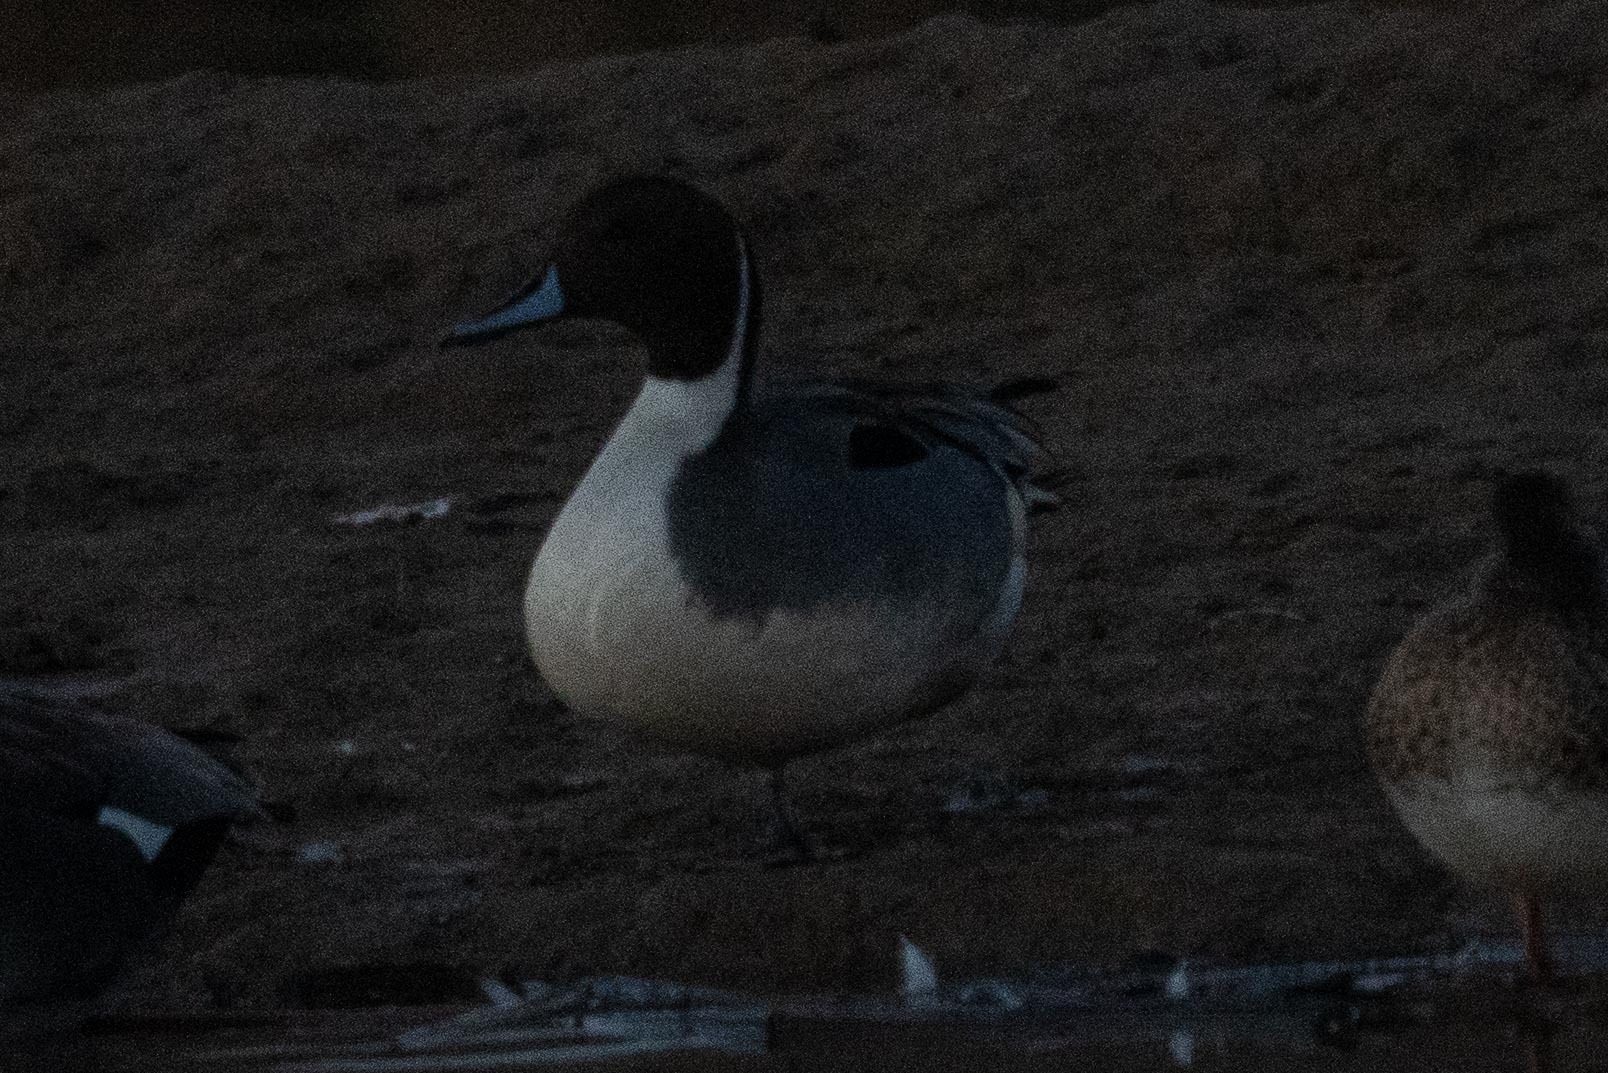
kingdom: Animalia
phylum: Chordata
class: Aves
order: Anseriformes
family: Anatidae
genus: Anas
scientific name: Anas acuta
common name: Northern pintail
